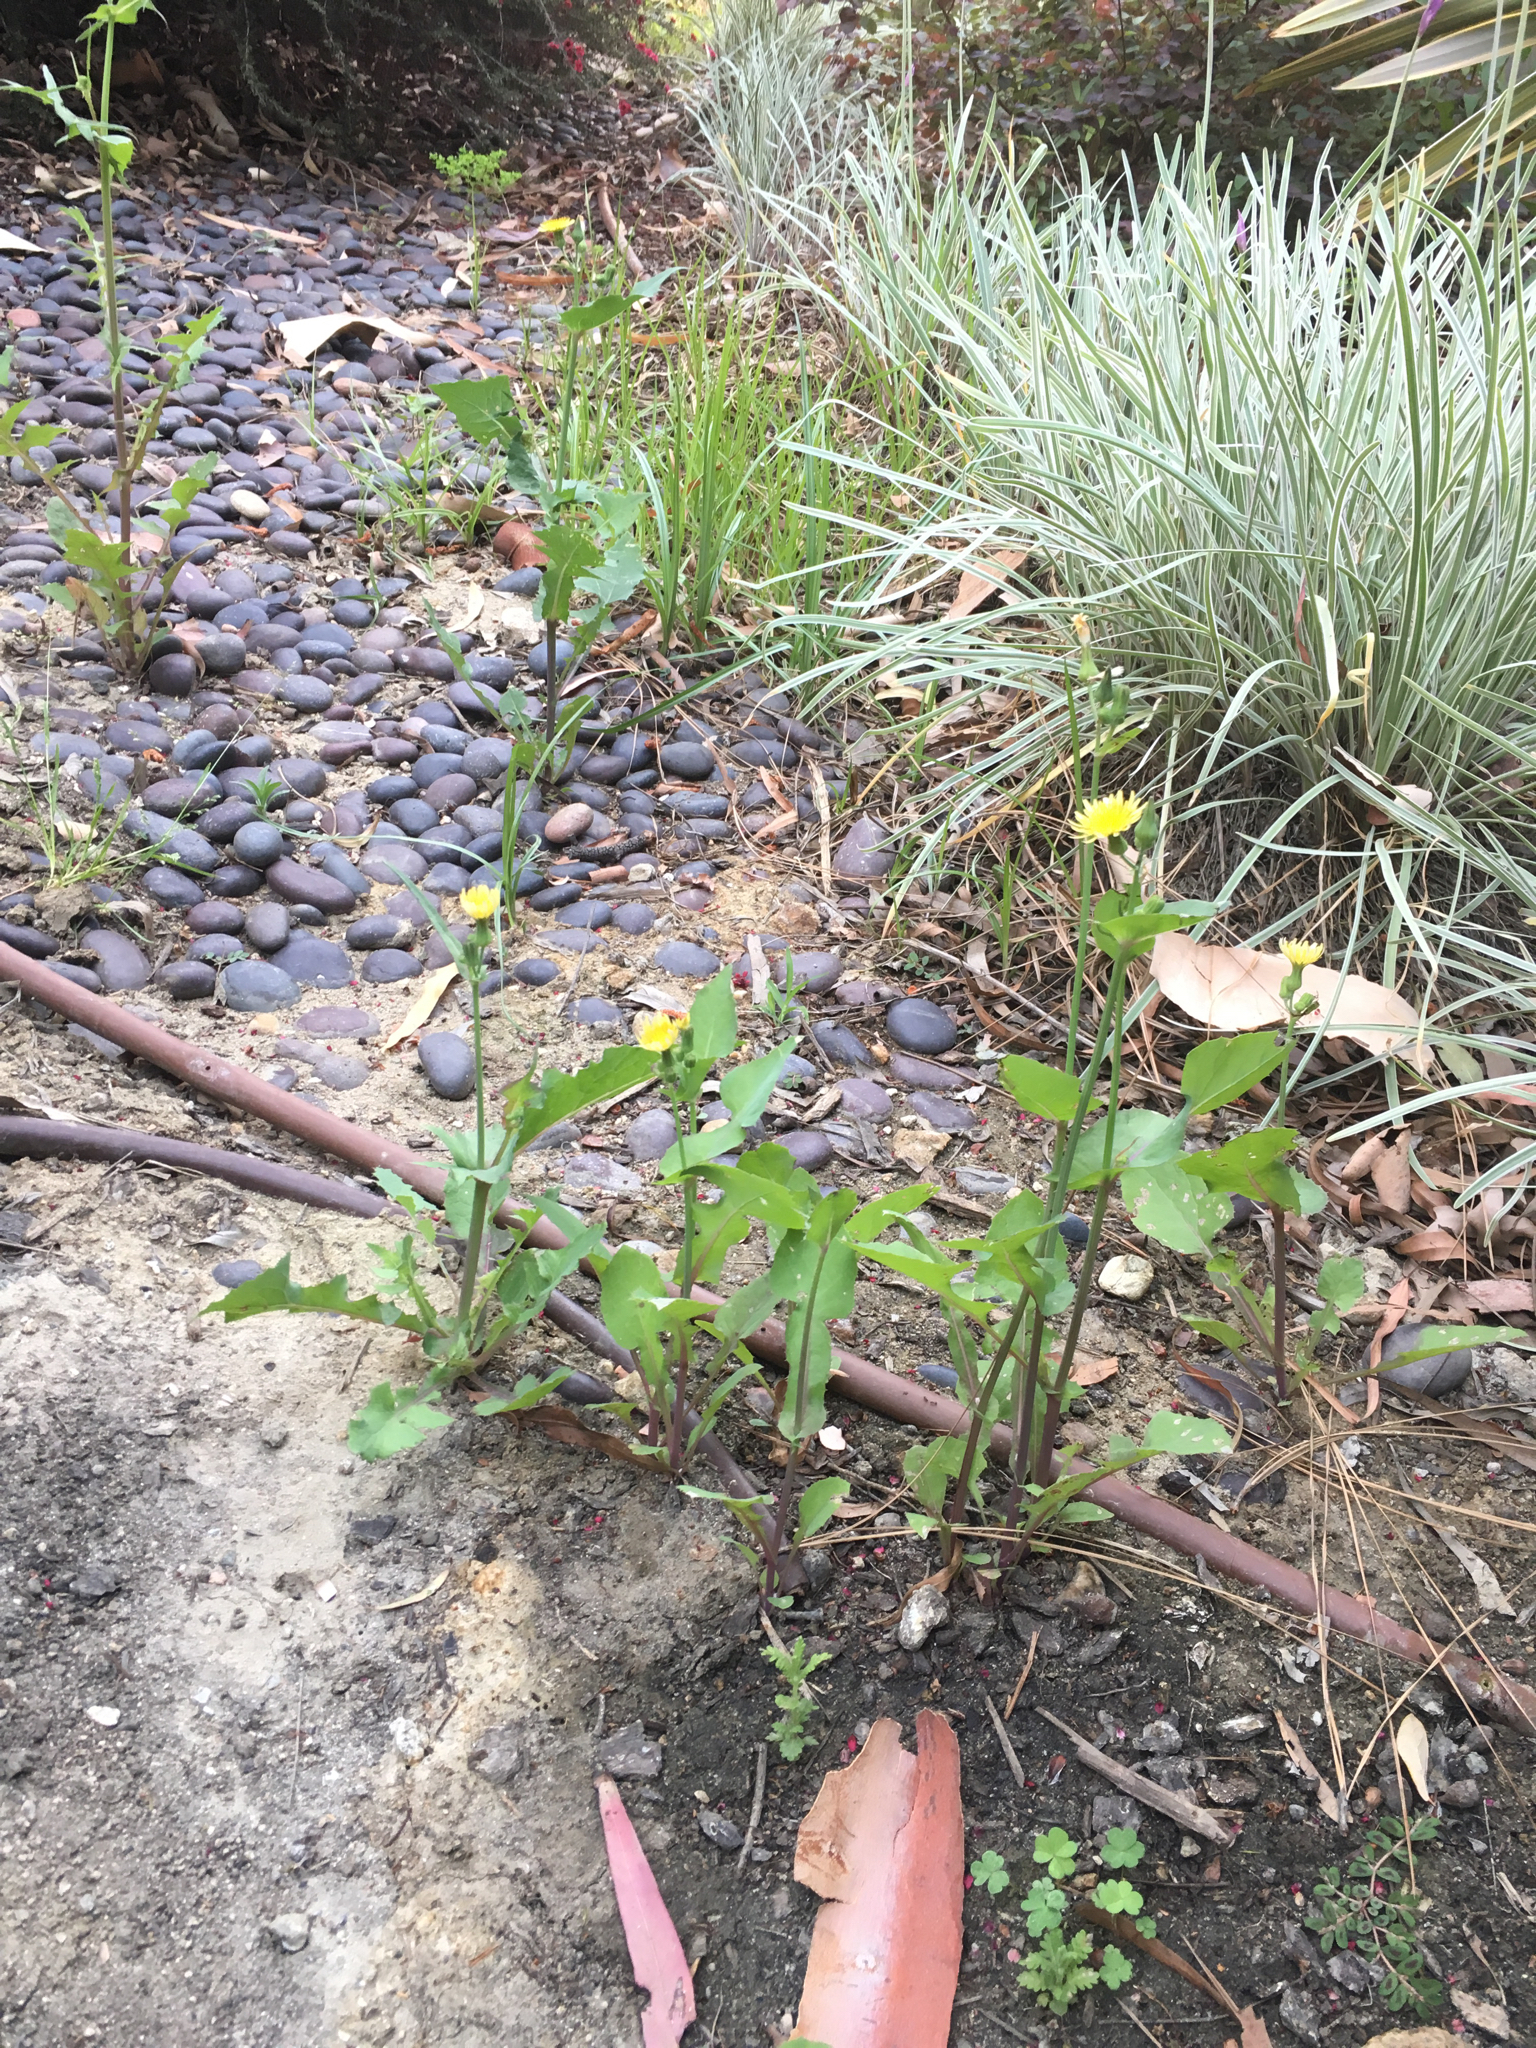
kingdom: Plantae
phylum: Tracheophyta
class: Magnoliopsida
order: Asterales
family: Asteraceae
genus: Sonchus
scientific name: Sonchus oleraceus
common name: Common sowthistle
